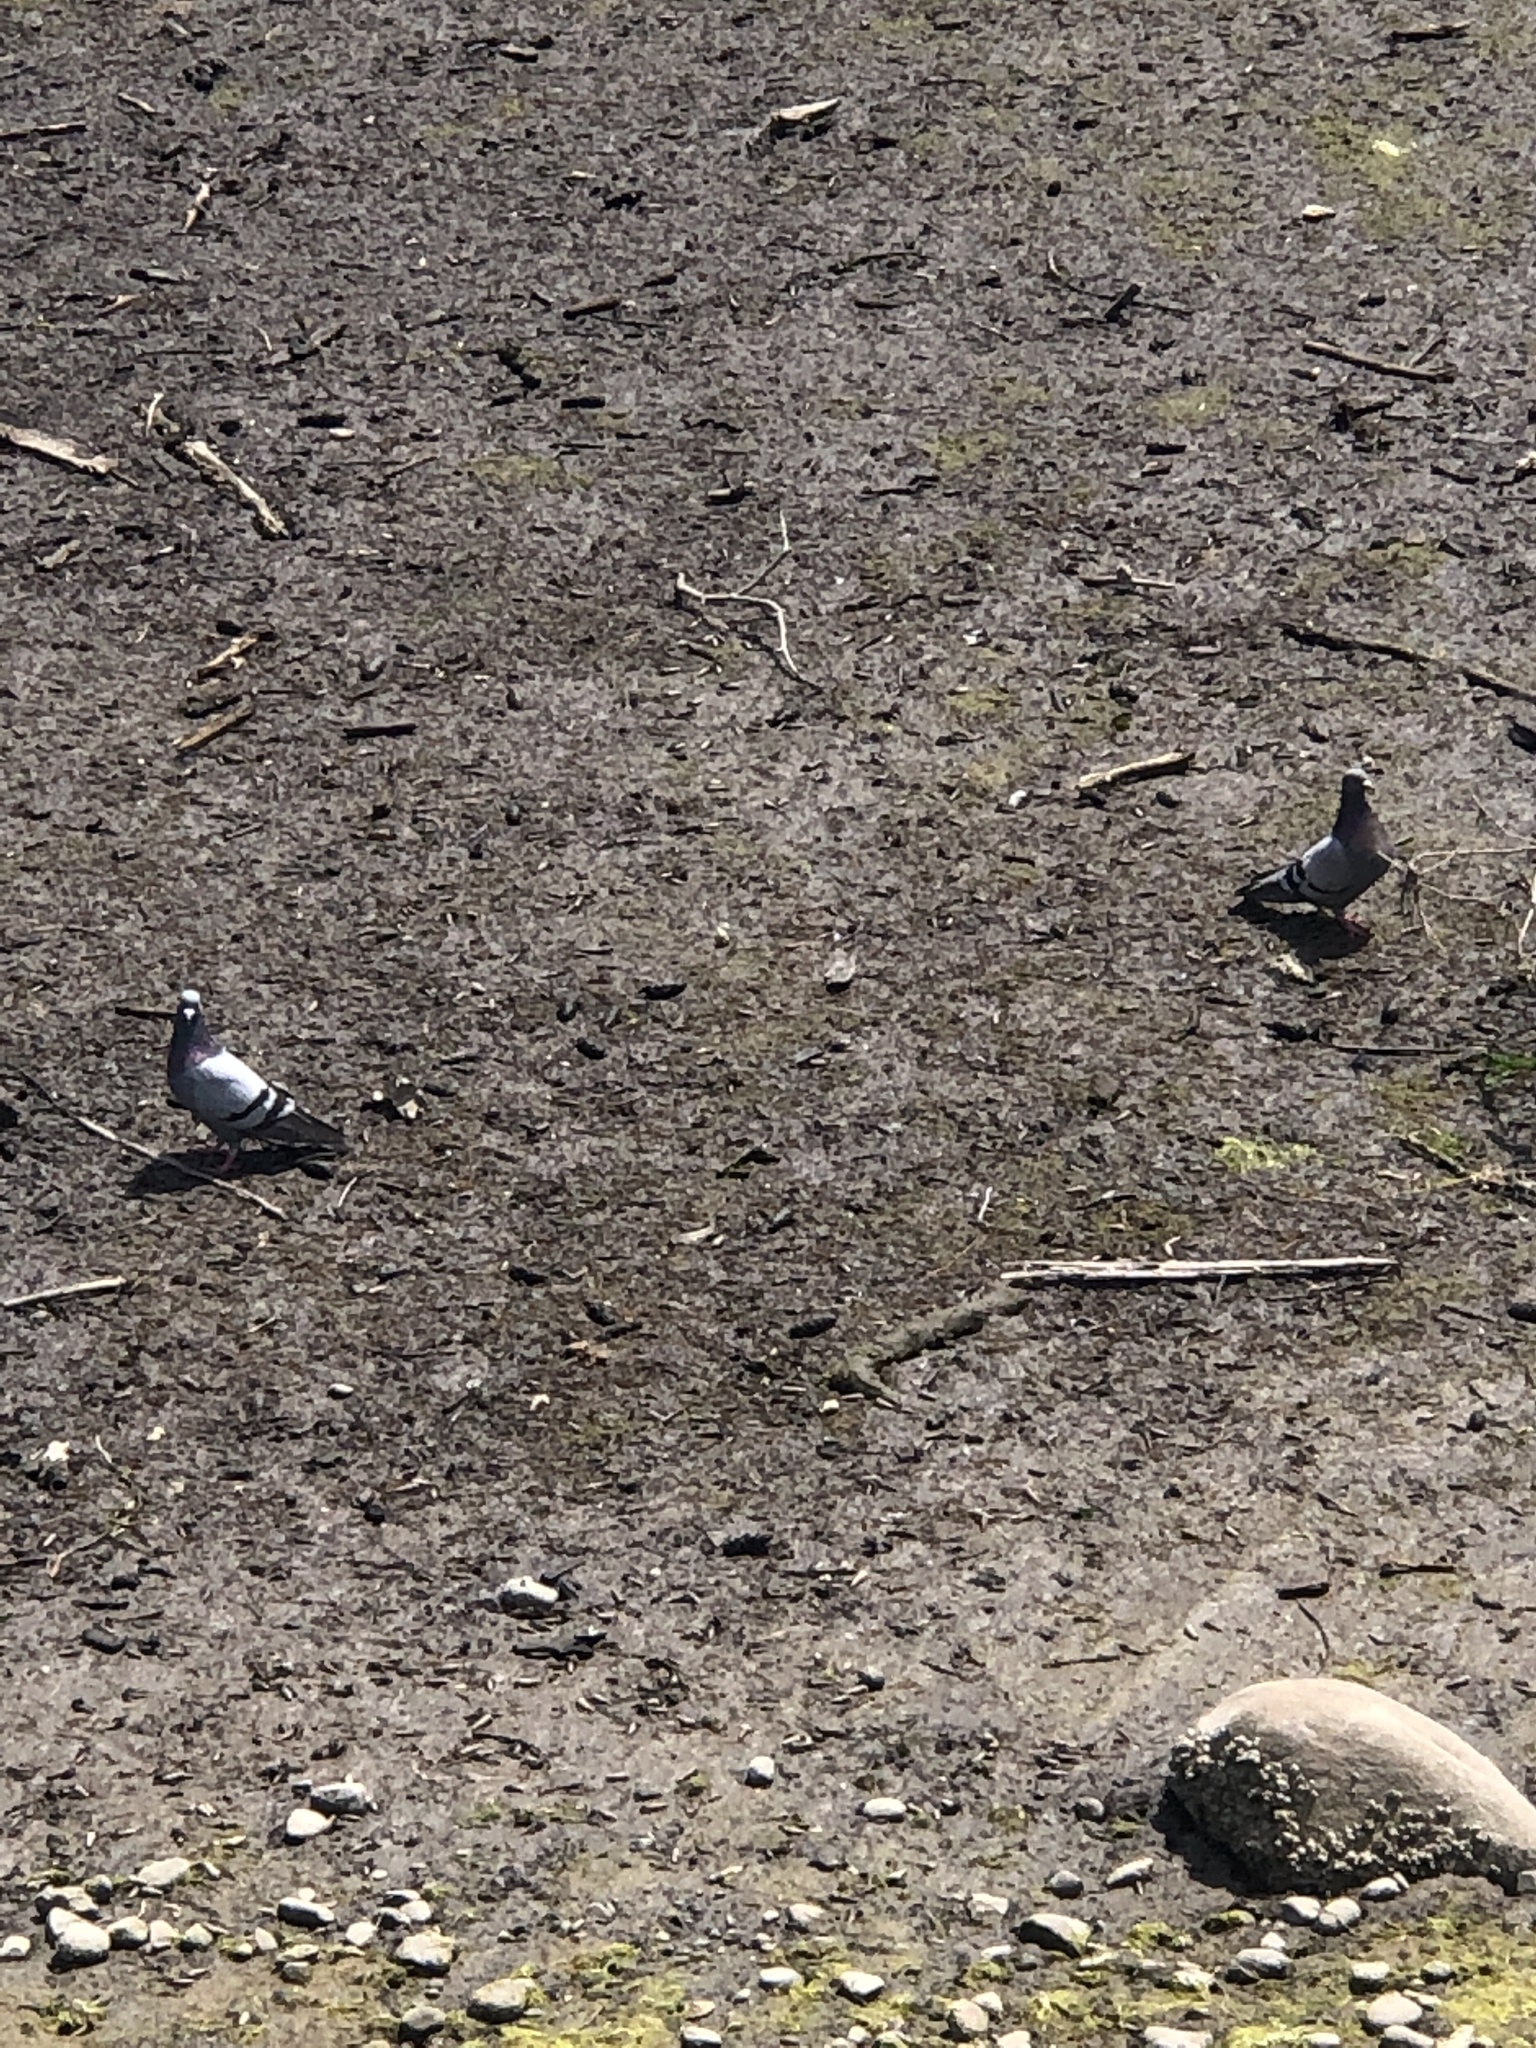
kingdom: Animalia
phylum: Chordata
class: Aves
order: Columbiformes
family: Columbidae
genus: Columba
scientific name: Columba livia
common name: Rock pigeon
